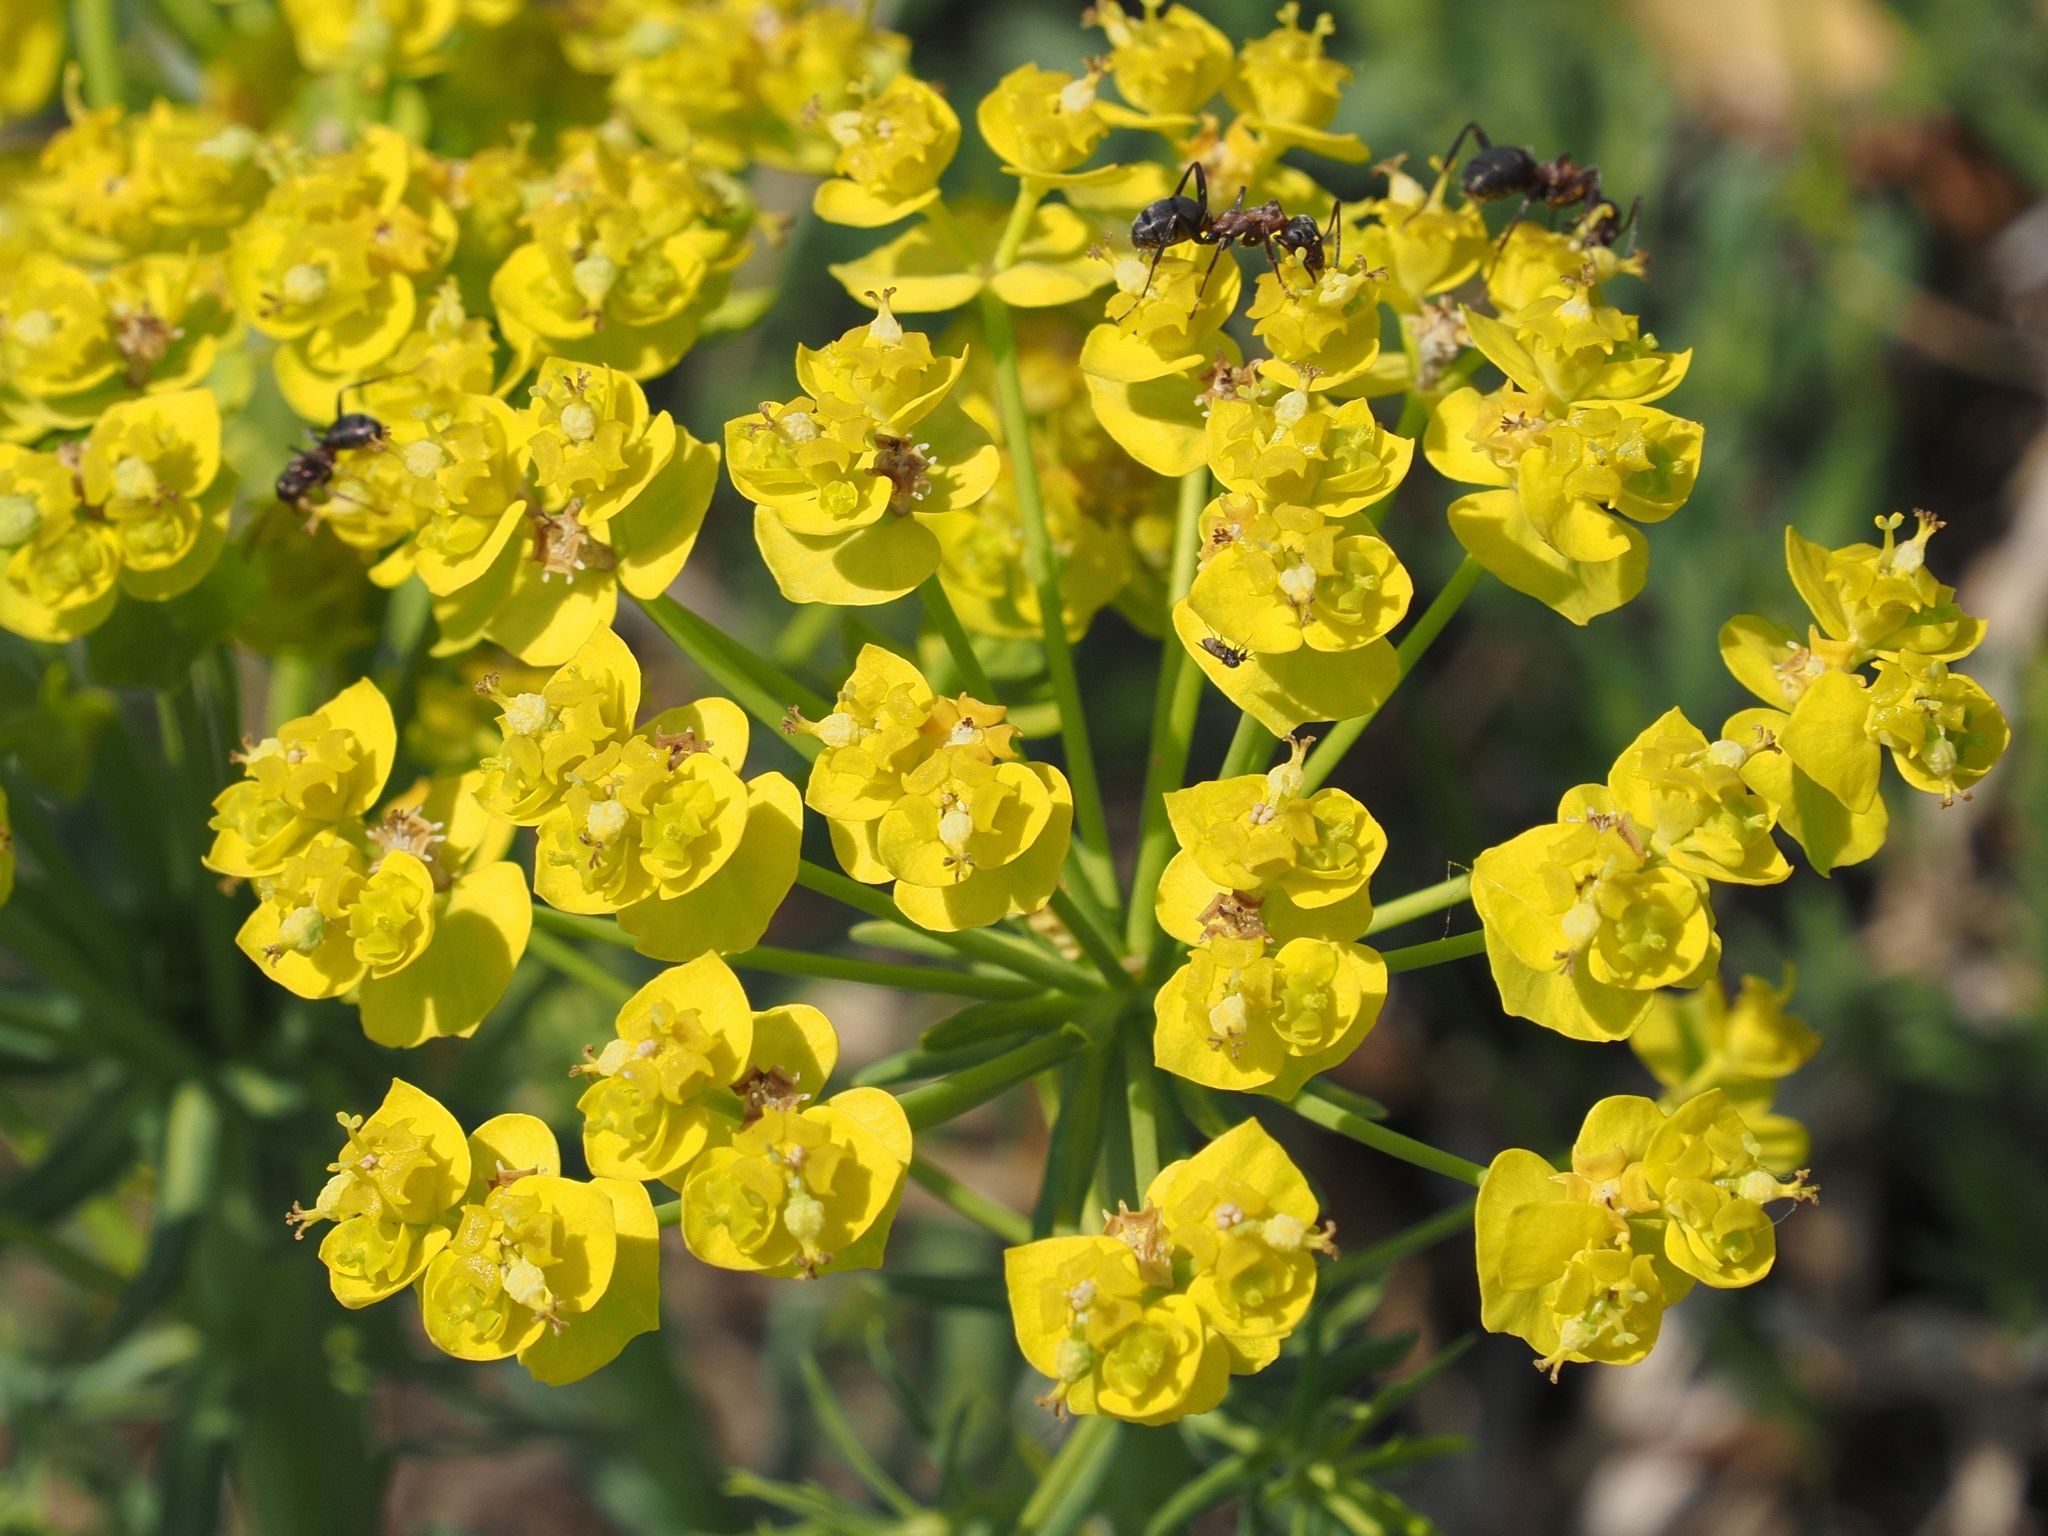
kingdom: Plantae
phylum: Tracheophyta
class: Magnoliopsida
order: Malpighiales
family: Euphorbiaceae
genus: Euphorbia
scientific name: Euphorbia cyparissias
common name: Cypress spurge
